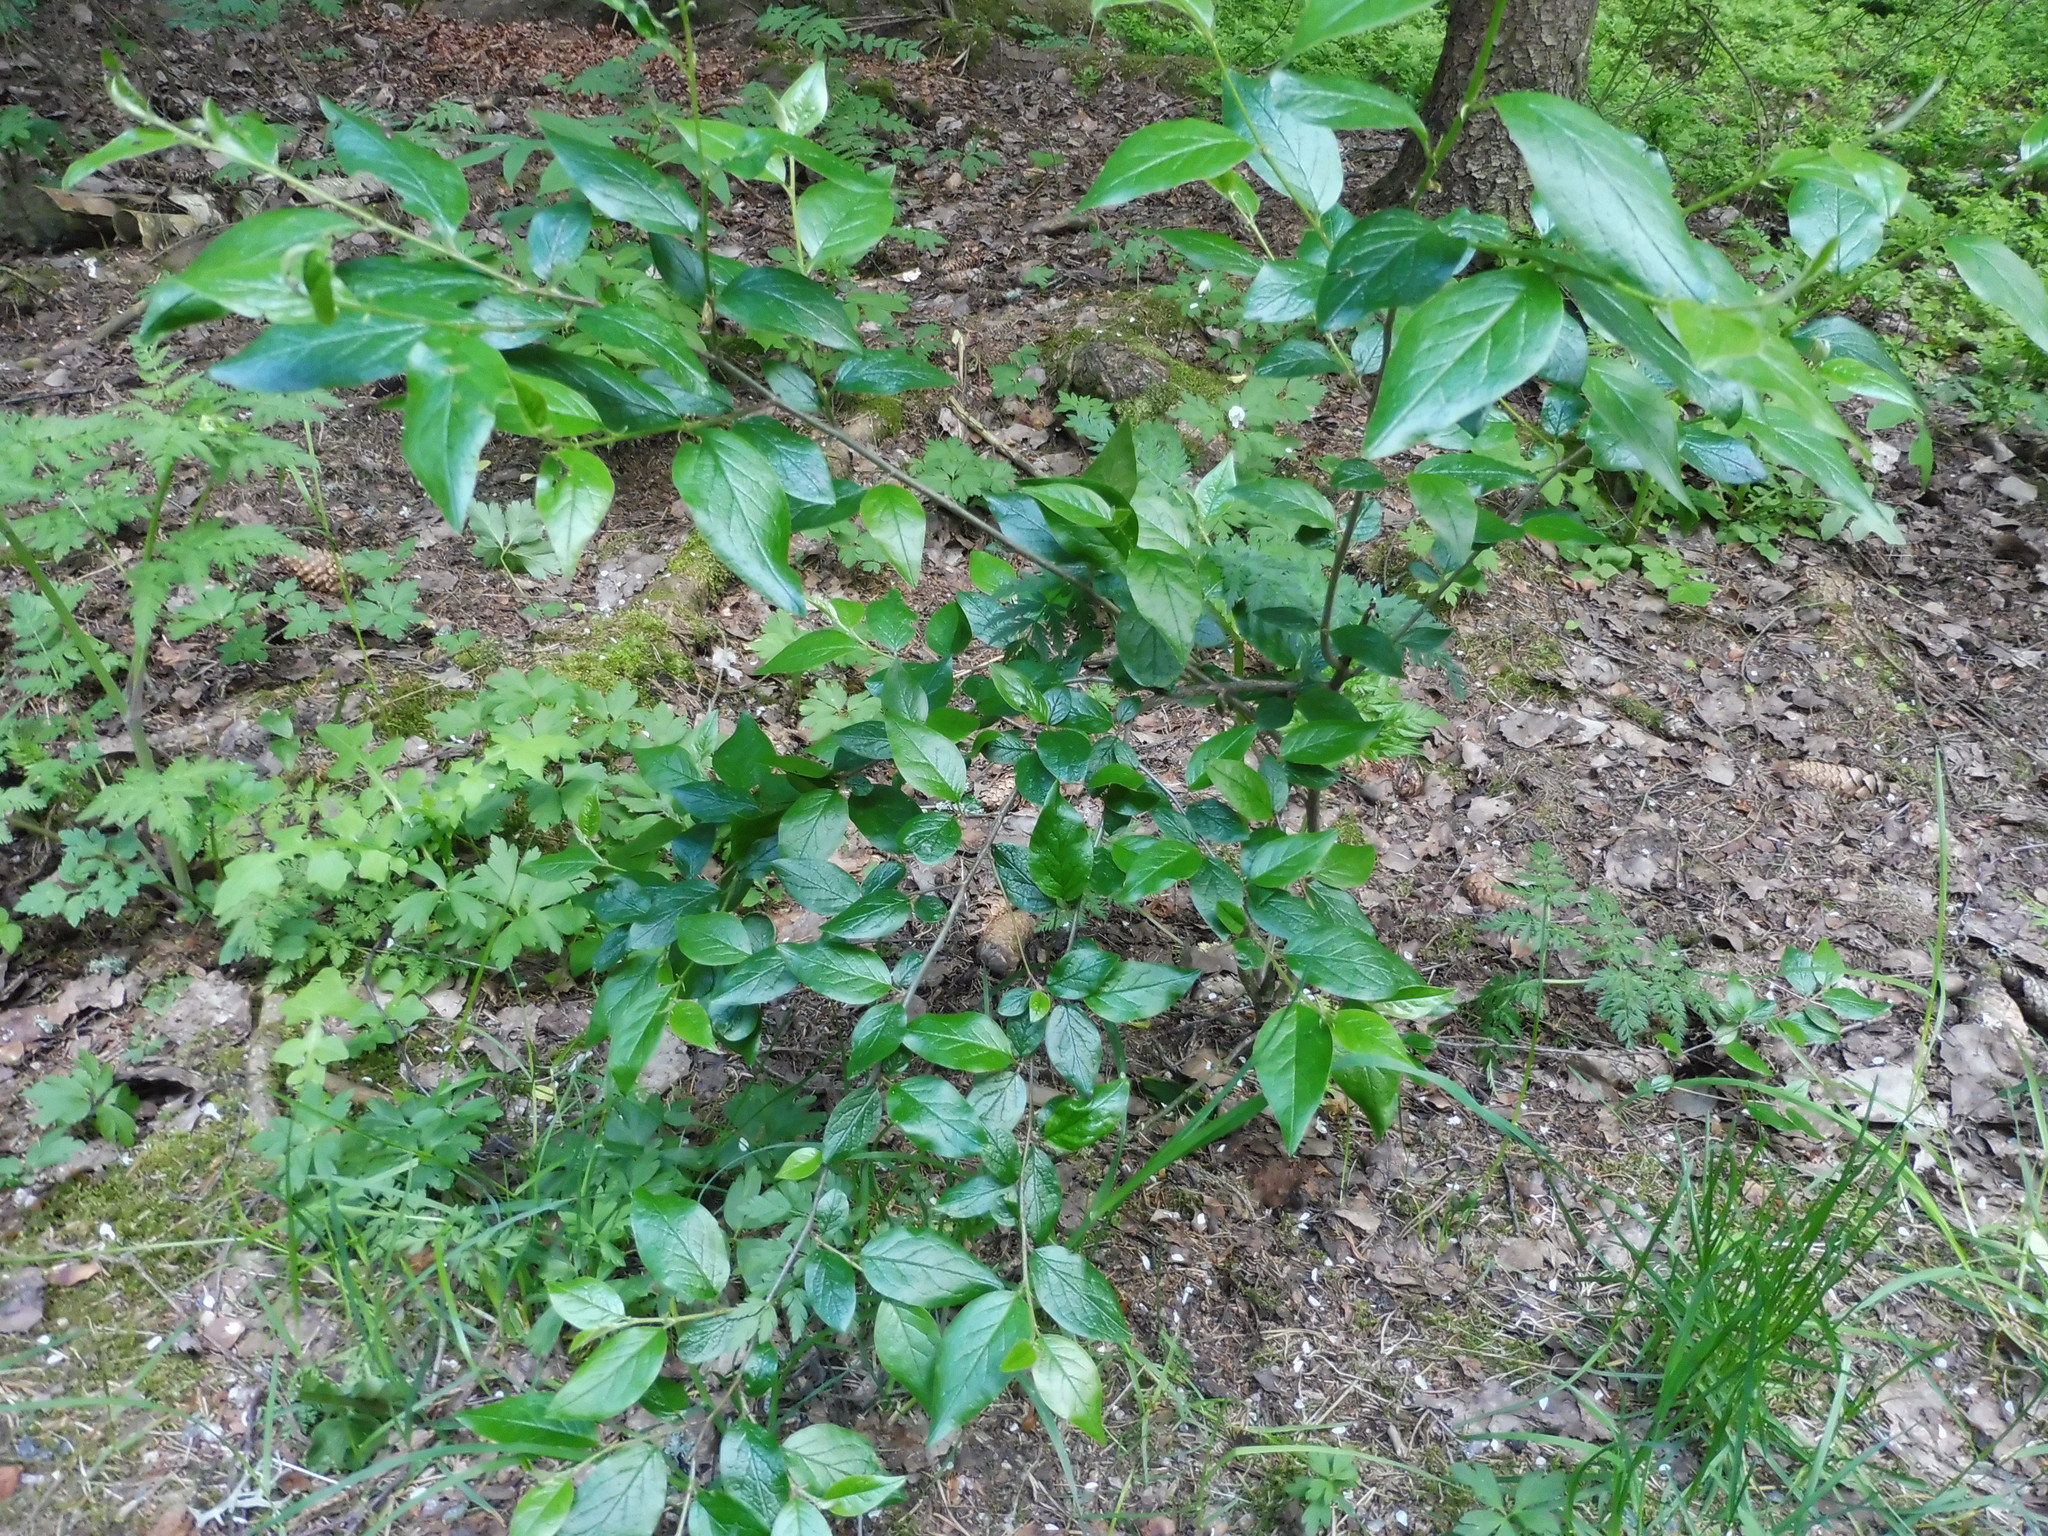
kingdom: Plantae
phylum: Tracheophyta
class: Magnoliopsida
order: Rosales
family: Rosaceae
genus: Cotoneaster
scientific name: Cotoneaster acutifolius
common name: Peking cotoneaster
